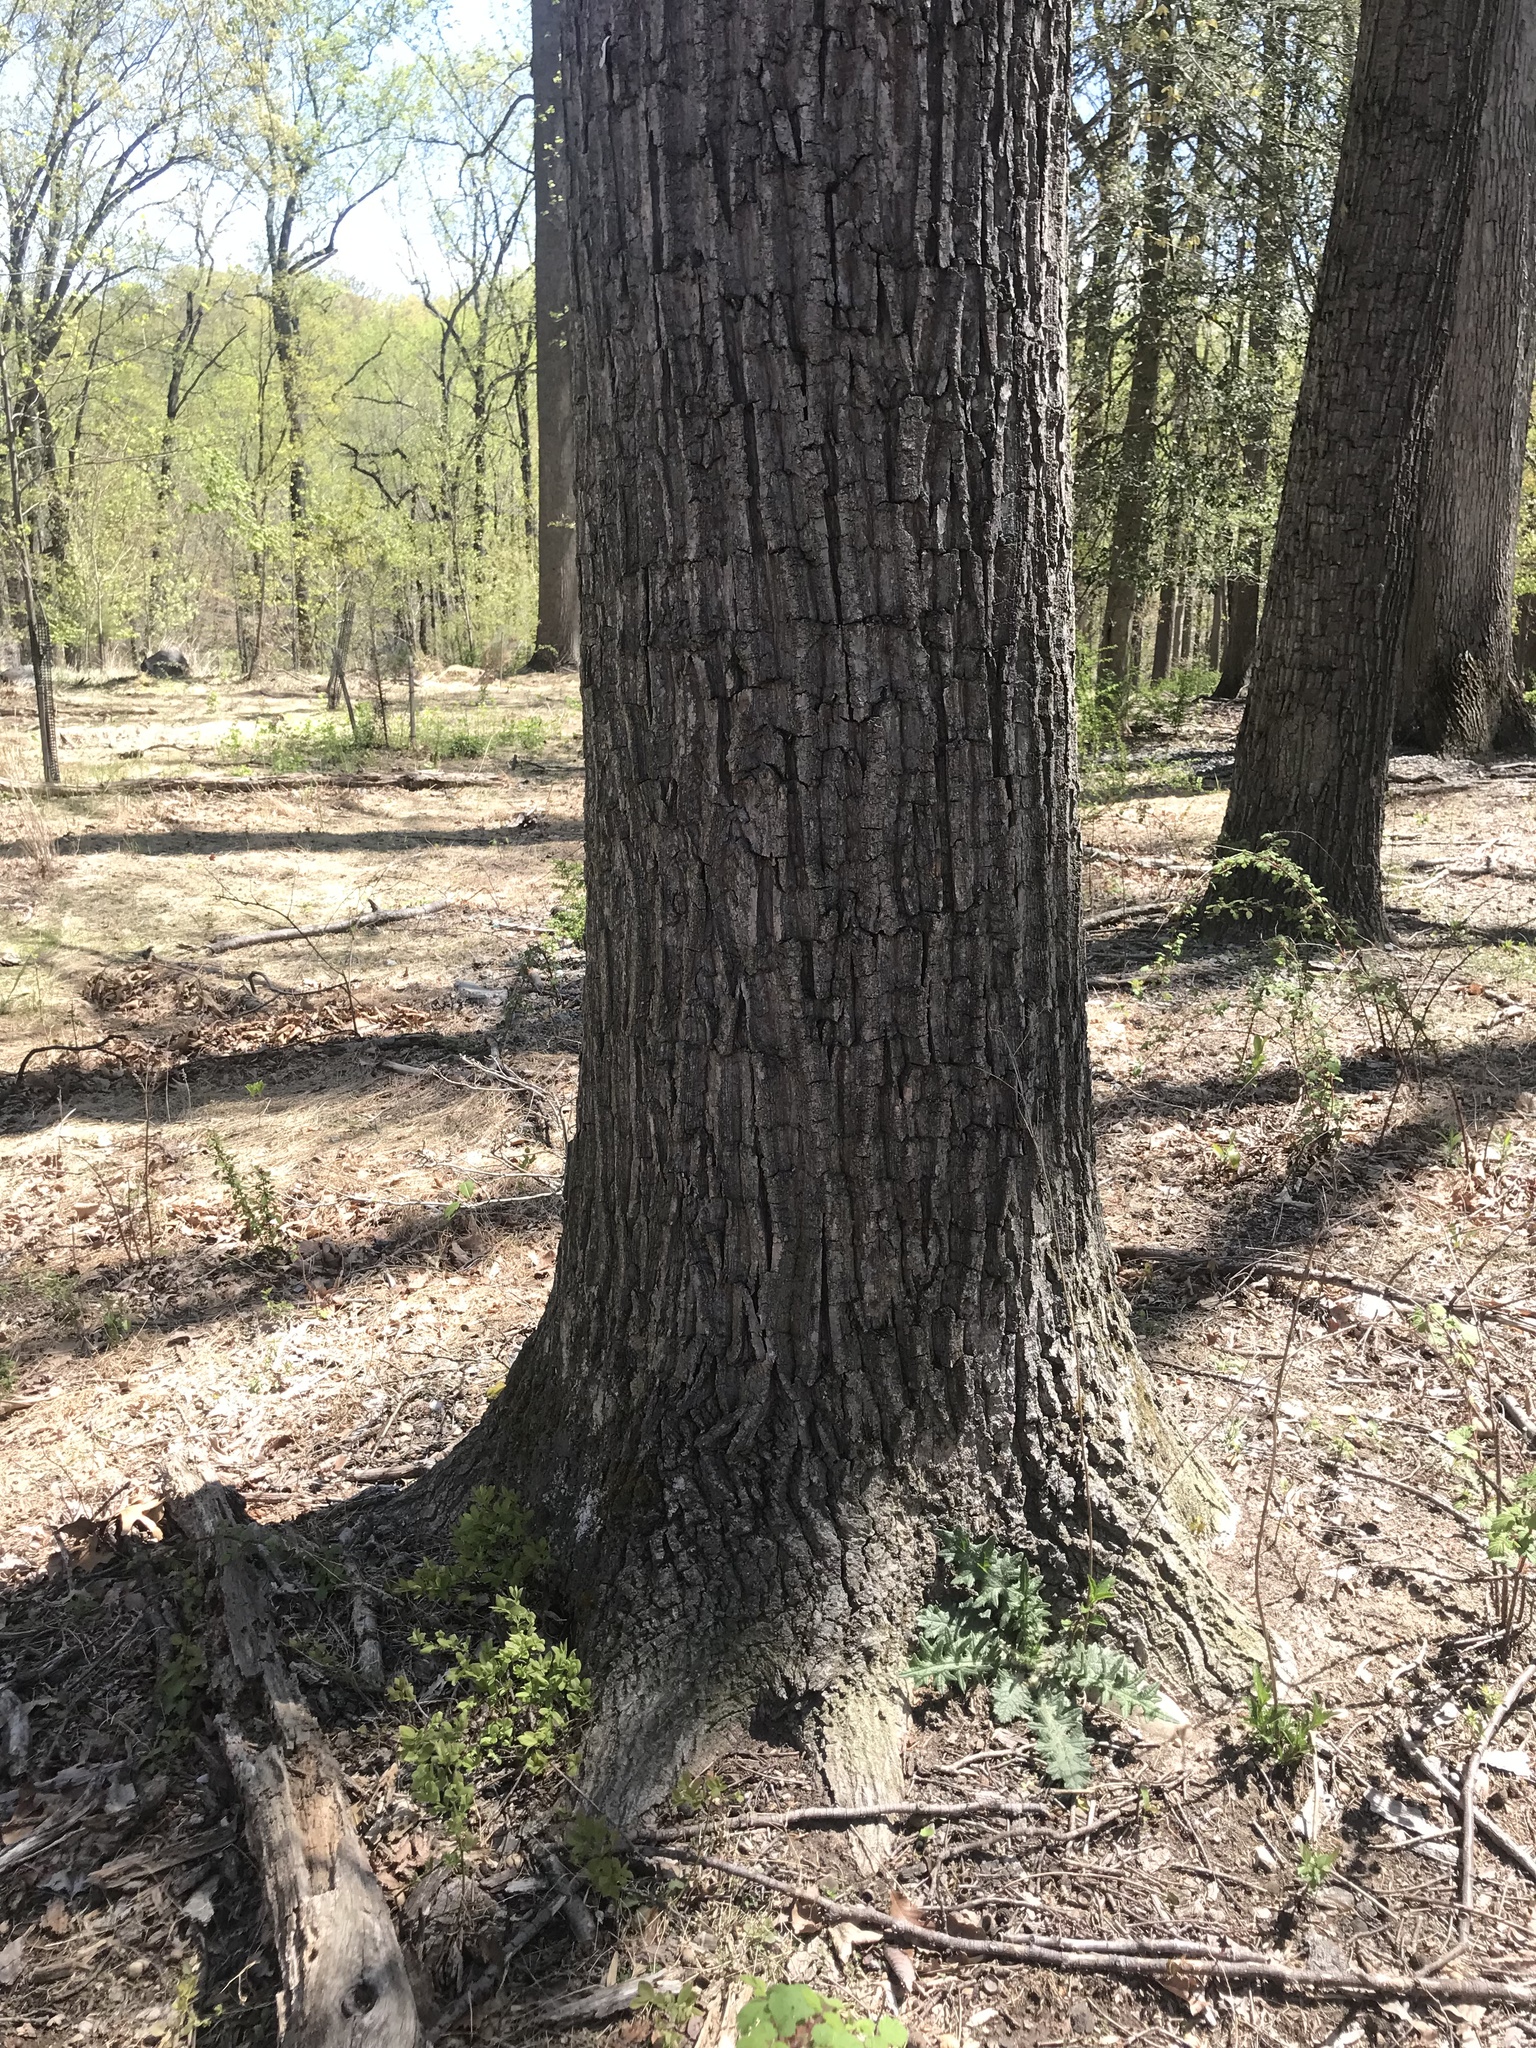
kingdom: Plantae
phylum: Tracheophyta
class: Magnoliopsida
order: Fagales
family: Fagaceae
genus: Quercus
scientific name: Quercus montana
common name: Chestnut oak
